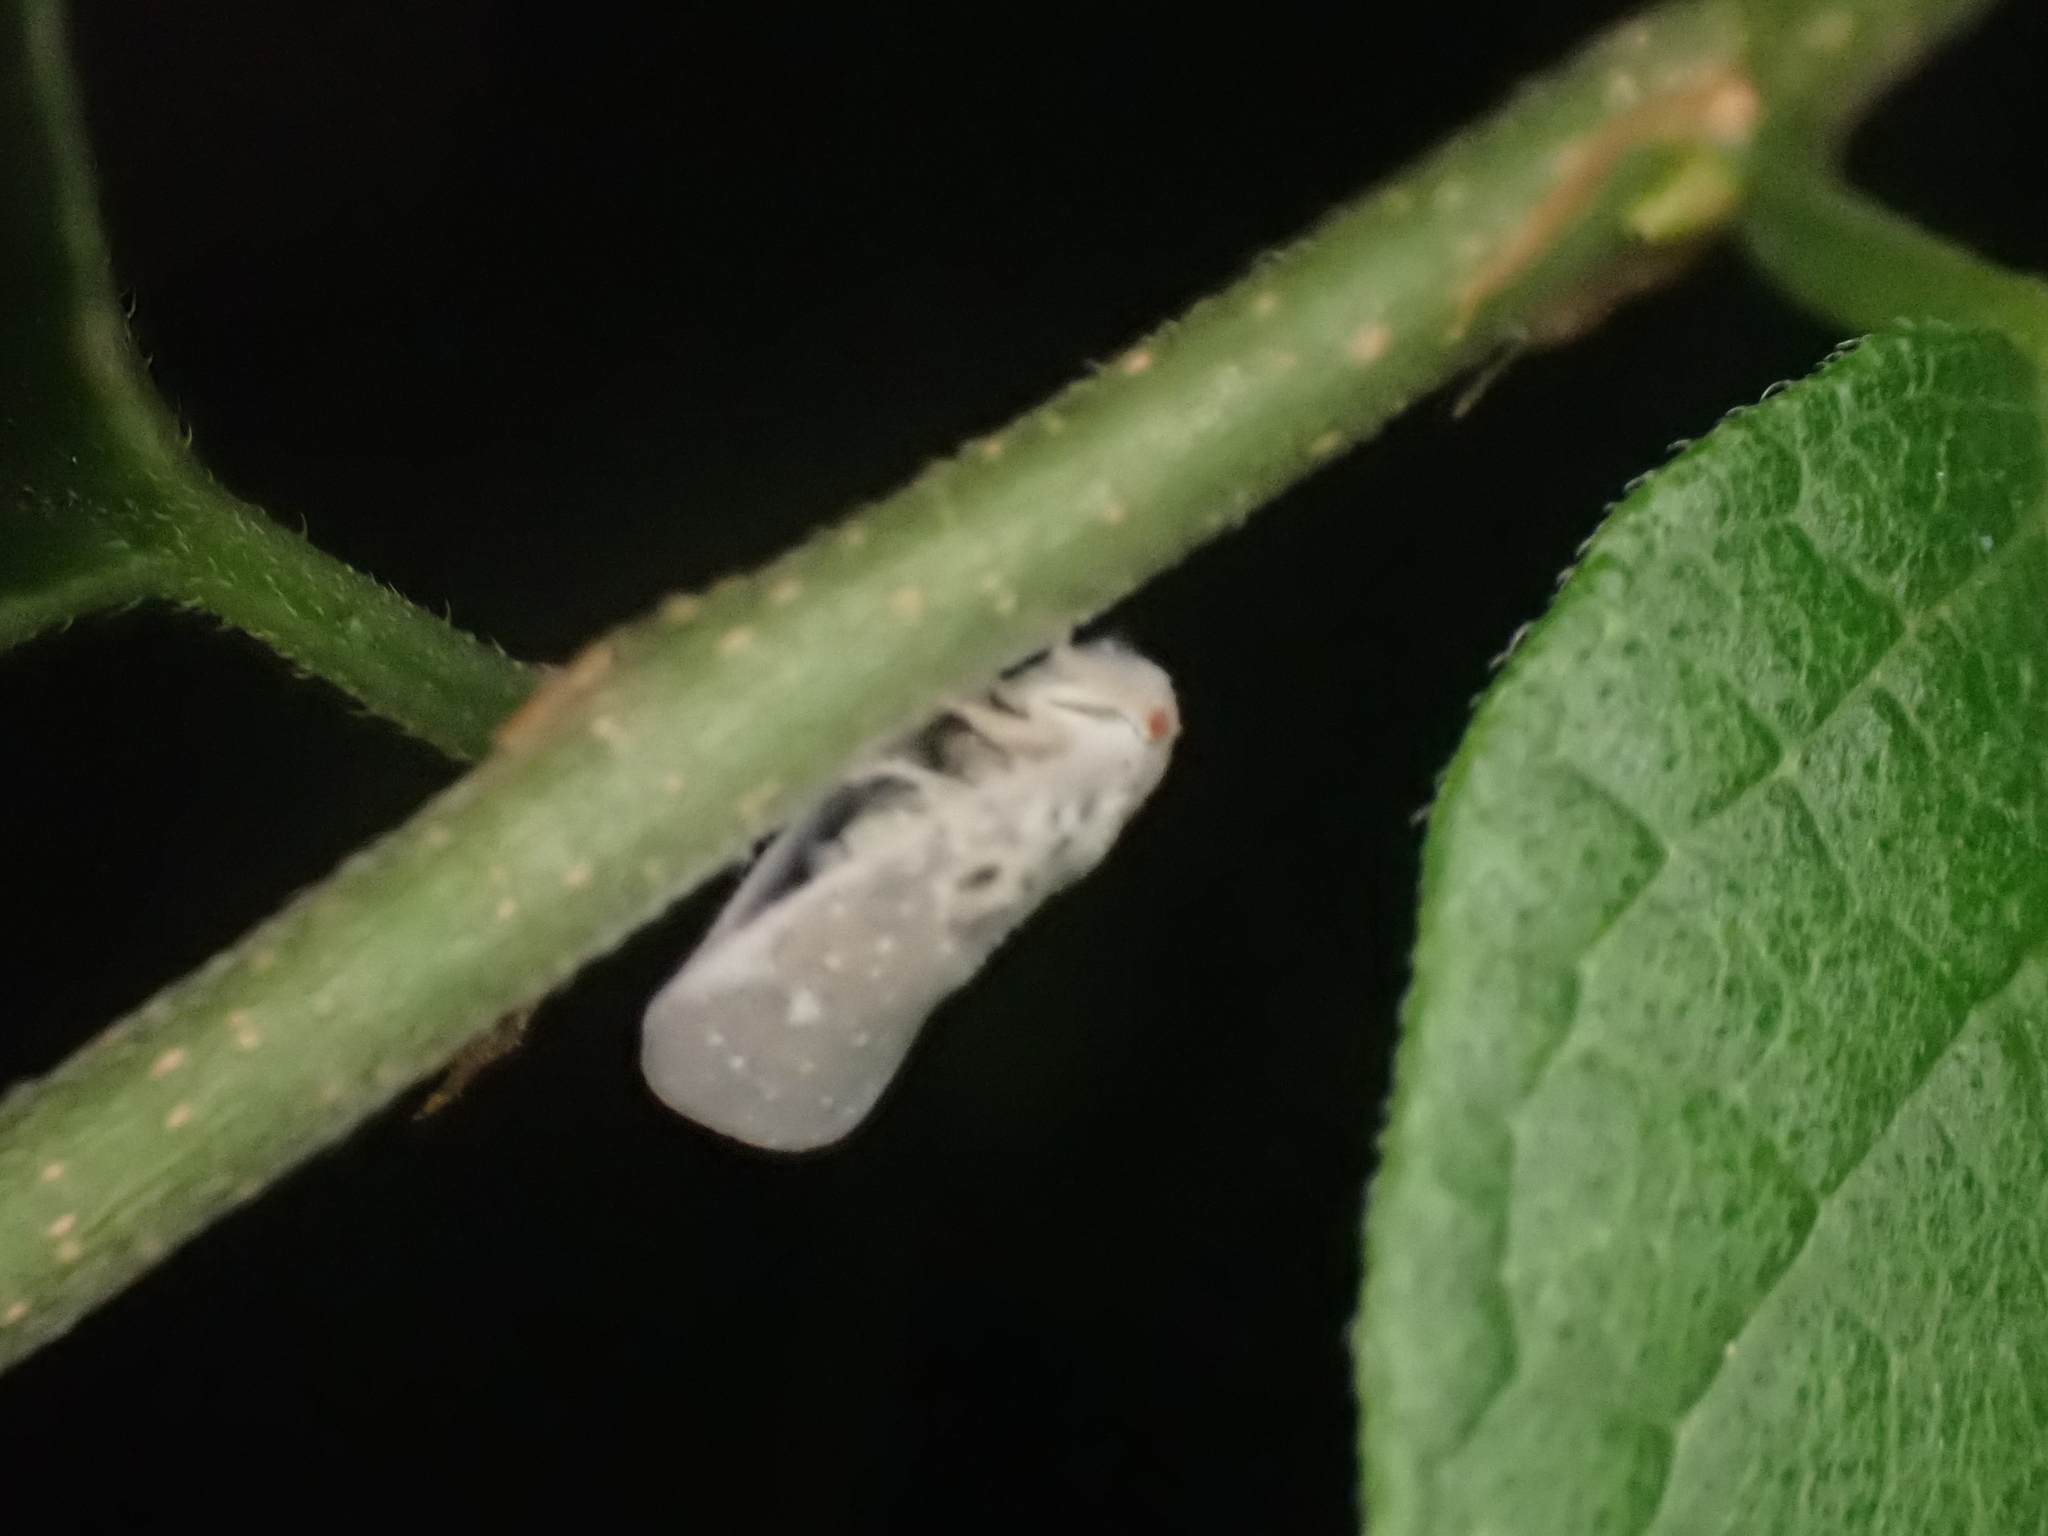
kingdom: Animalia
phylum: Arthropoda
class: Insecta
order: Hemiptera
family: Flatidae
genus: Metcalfa
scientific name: Metcalfa pruinosa
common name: Citrus flatid planthopper
